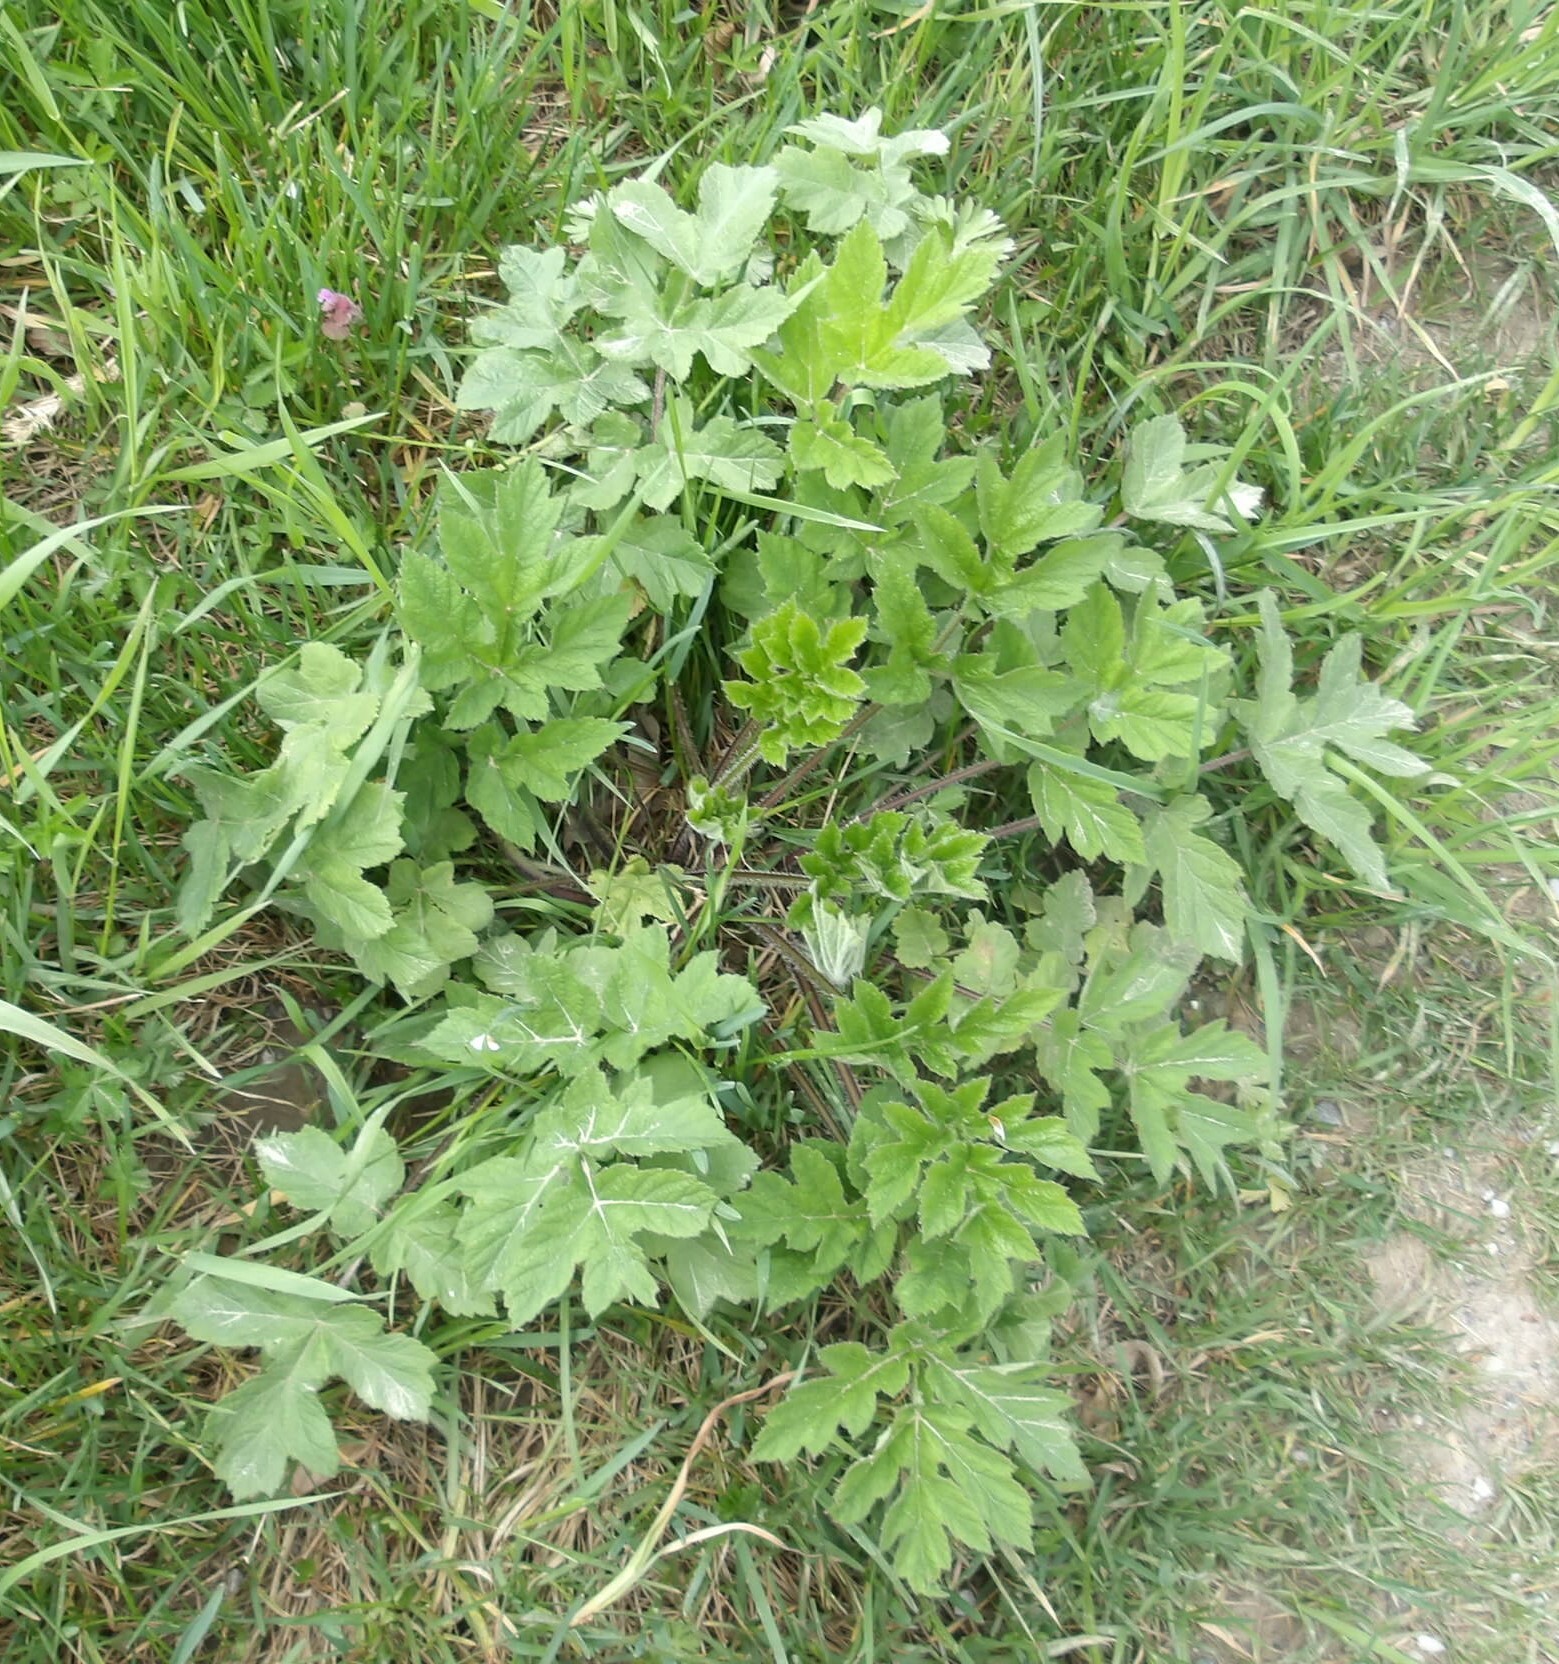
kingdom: Plantae
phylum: Tracheophyta
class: Magnoliopsida
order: Apiales
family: Apiaceae
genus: Heracleum
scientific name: Heracleum sphondylium
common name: Hogweed
